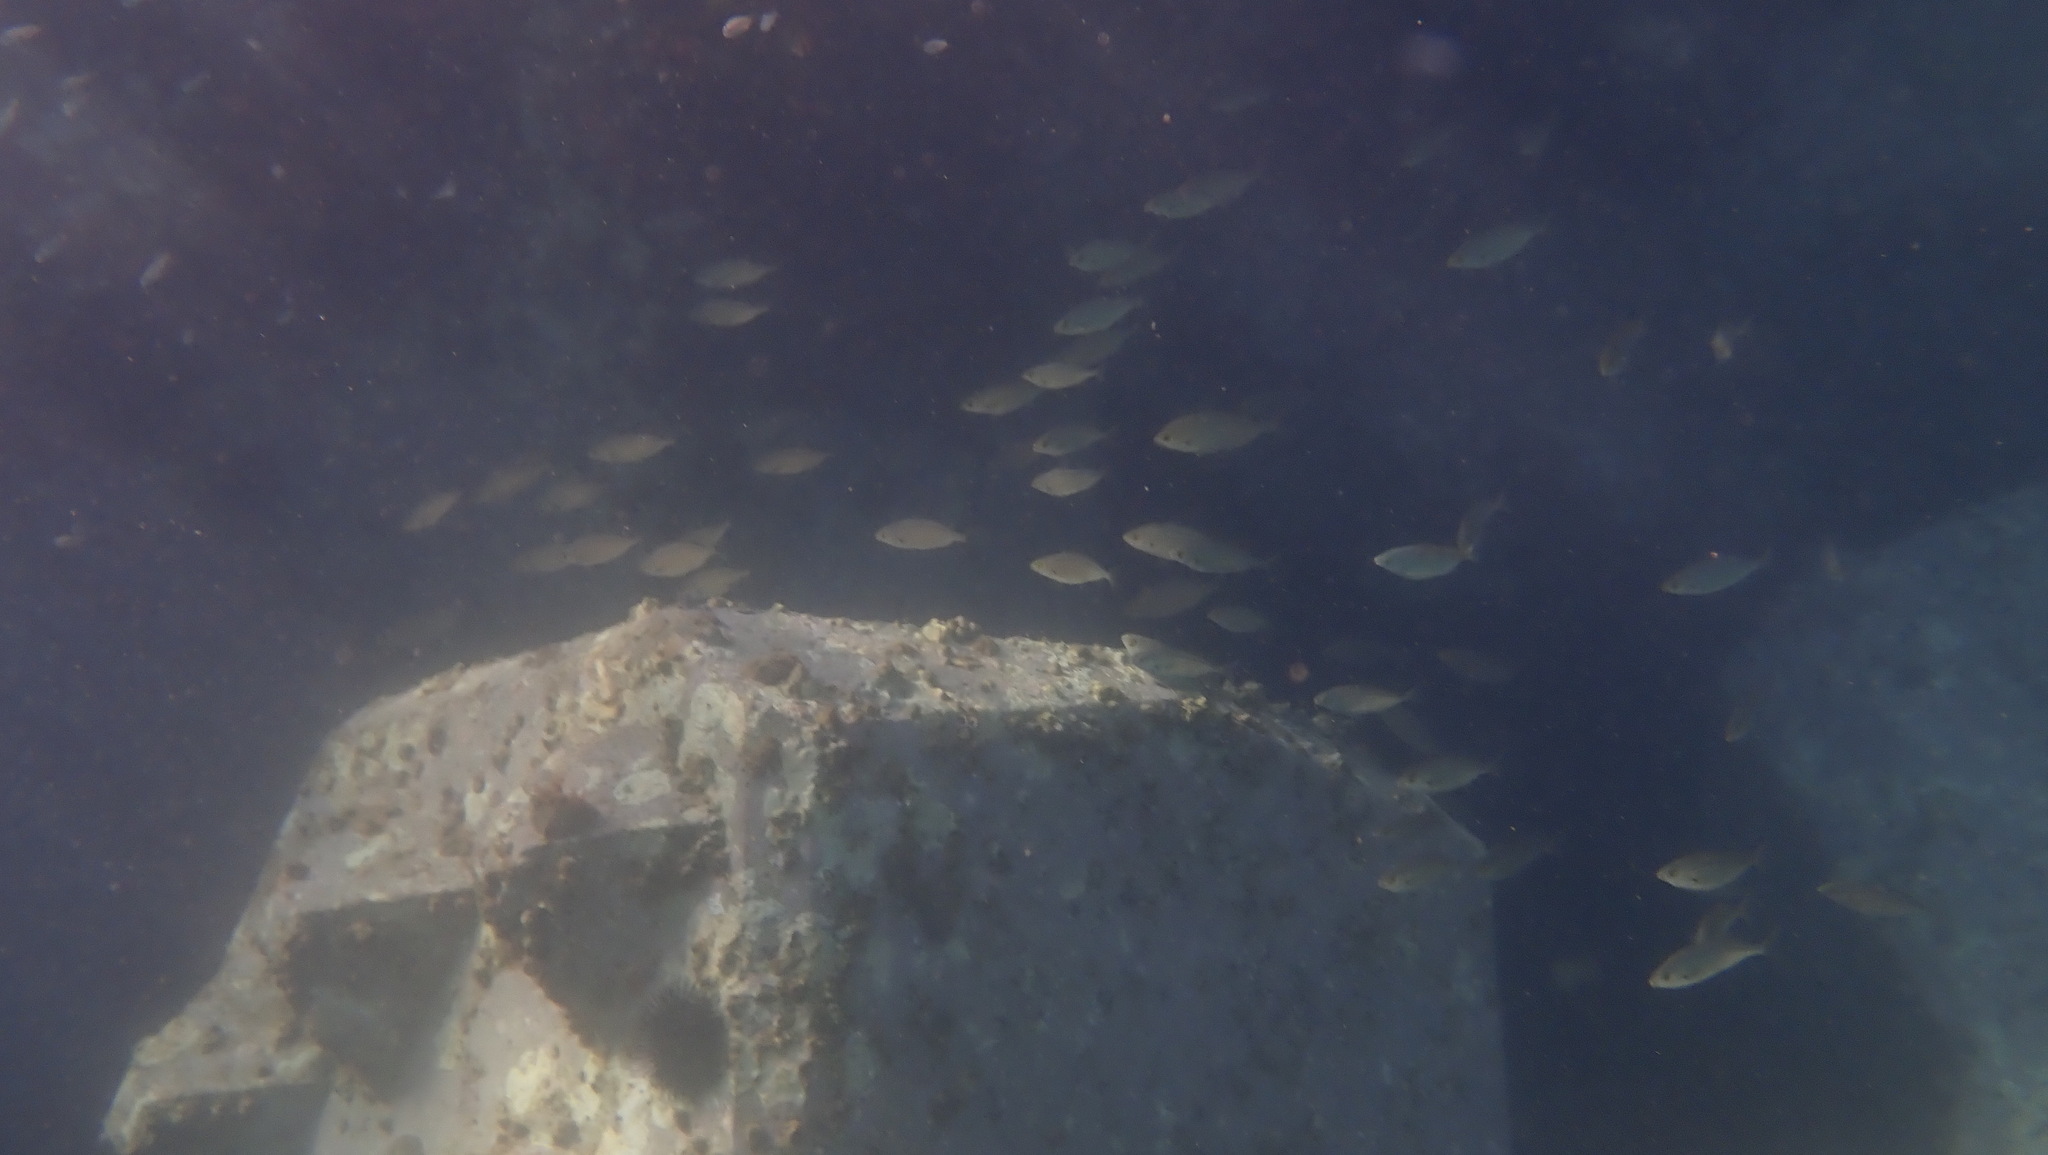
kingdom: Animalia
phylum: Chordata
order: Perciformes
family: Sparidae
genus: Sarpa
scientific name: Sarpa salpa
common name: Salema
